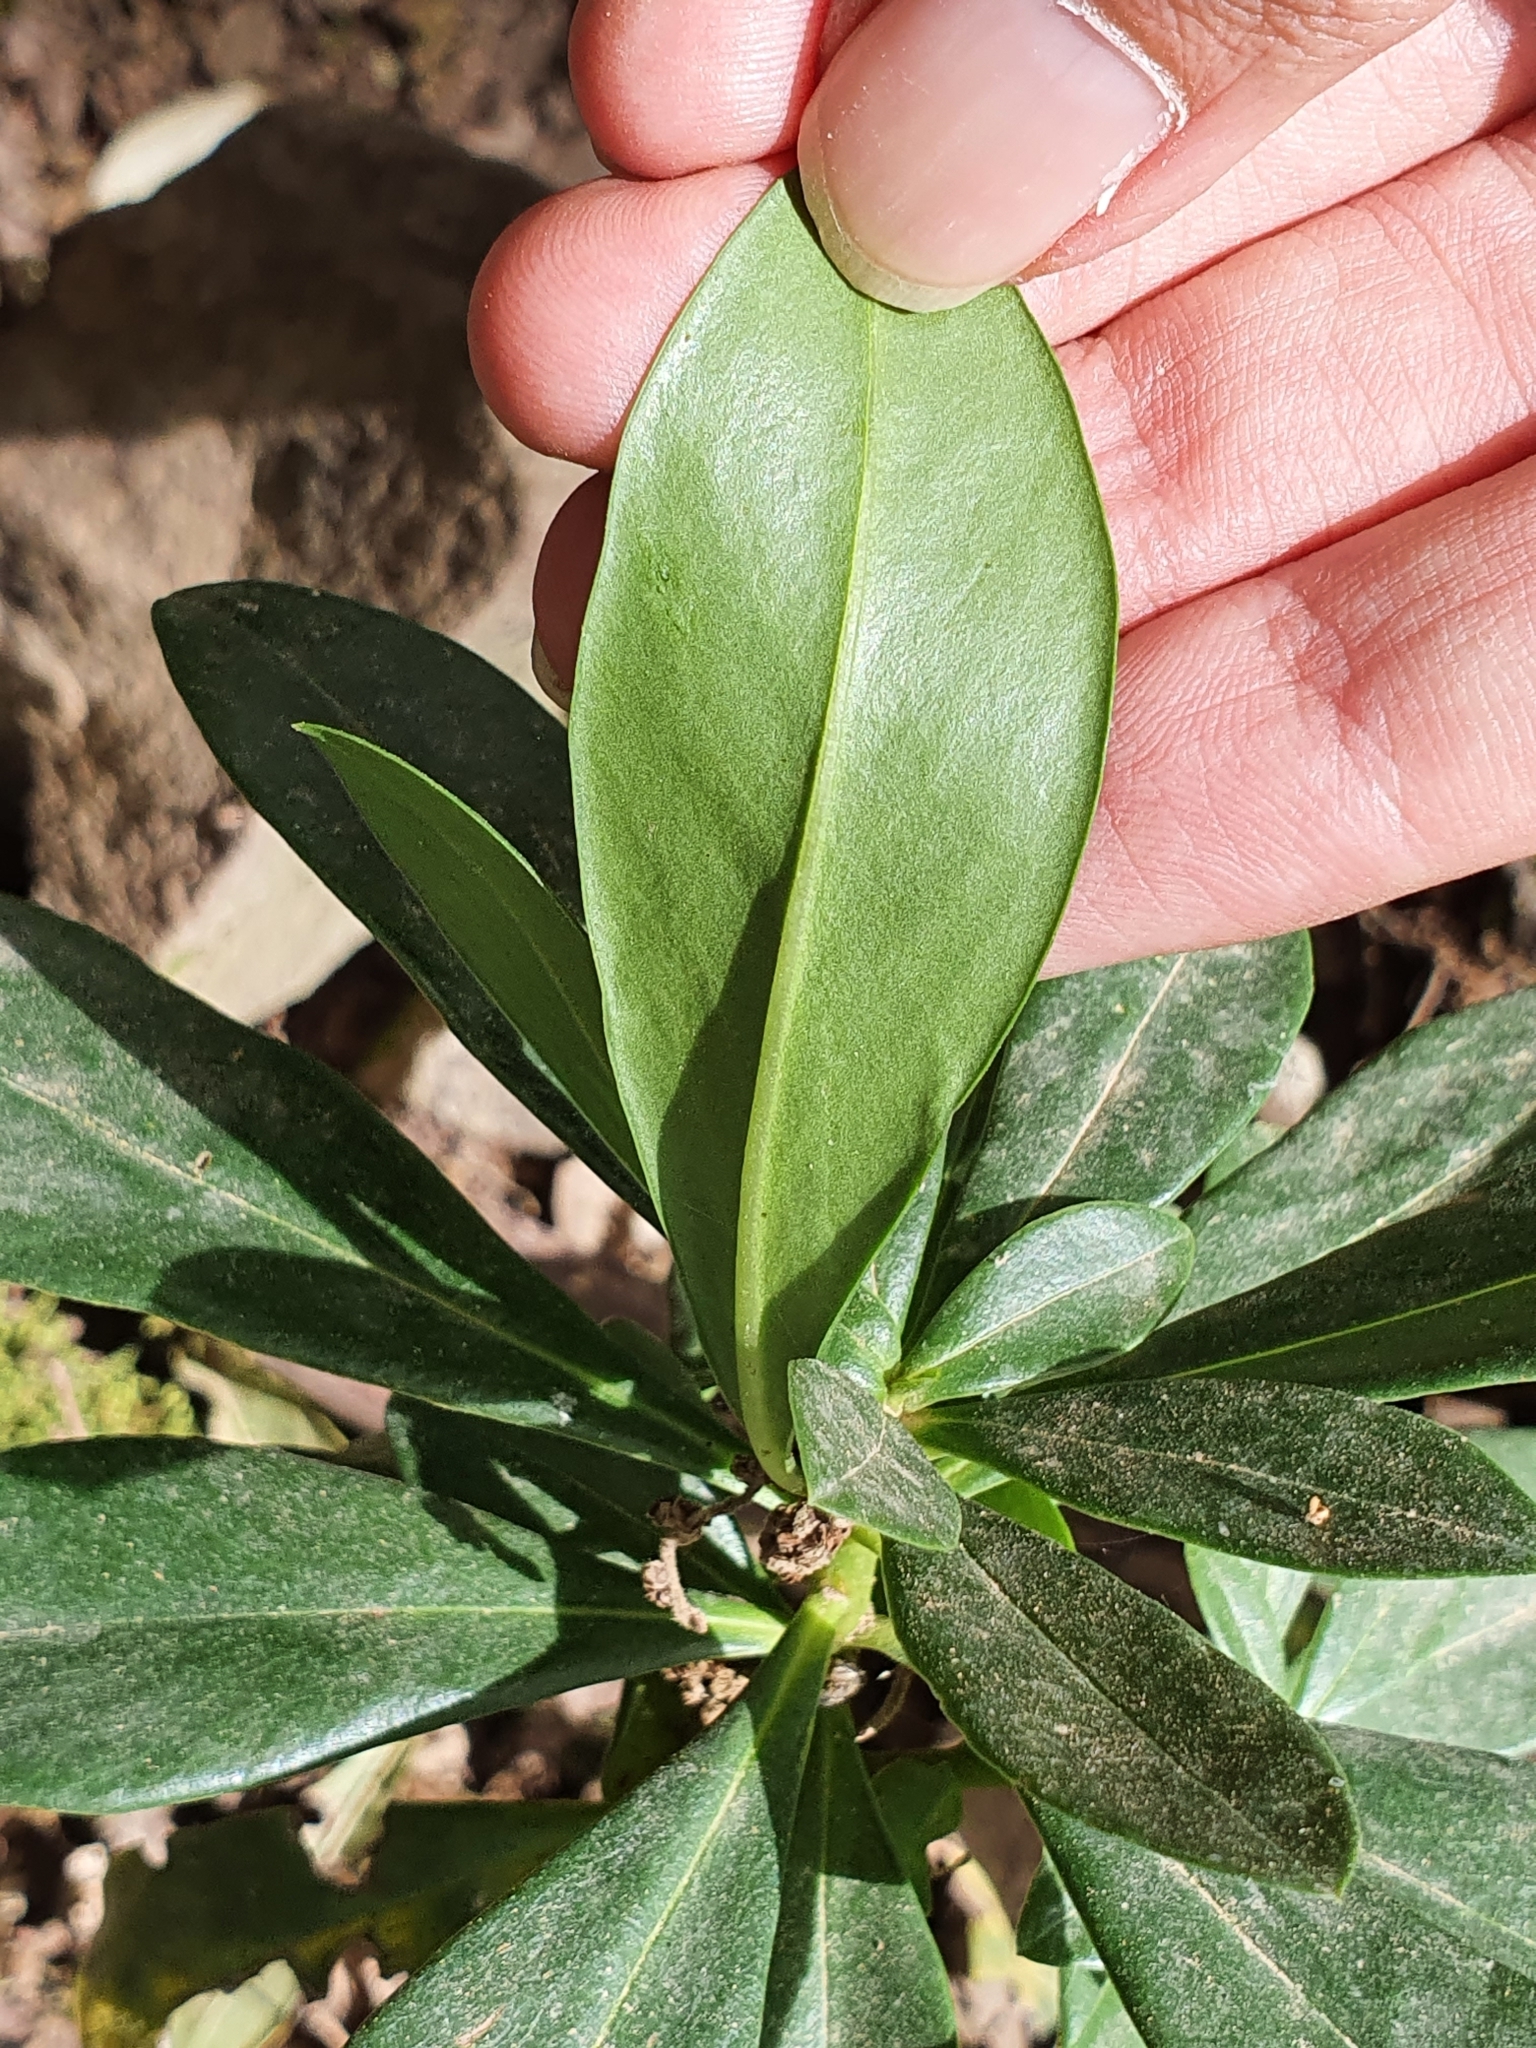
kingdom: Plantae
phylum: Tracheophyta
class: Magnoliopsida
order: Malvales
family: Thymelaeaceae
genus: Daphne
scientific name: Daphne laureola
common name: Spurge-laurel
